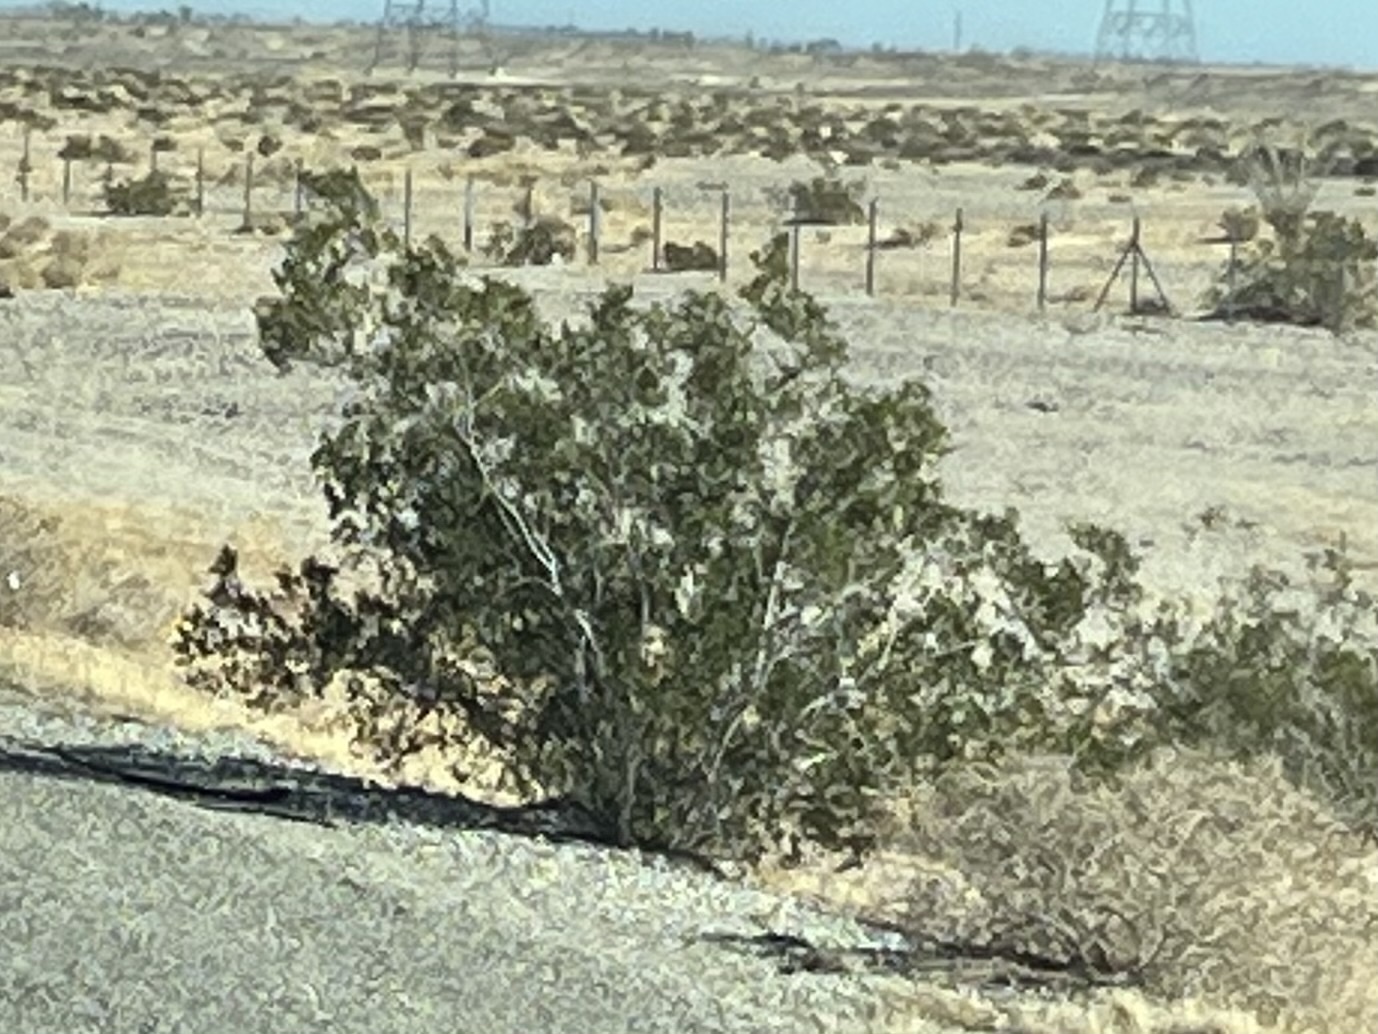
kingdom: Plantae
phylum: Tracheophyta
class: Magnoliopsida
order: Zygophyllales
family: Zygophyllaceae
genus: Larrea
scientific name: Larrea tridentata
